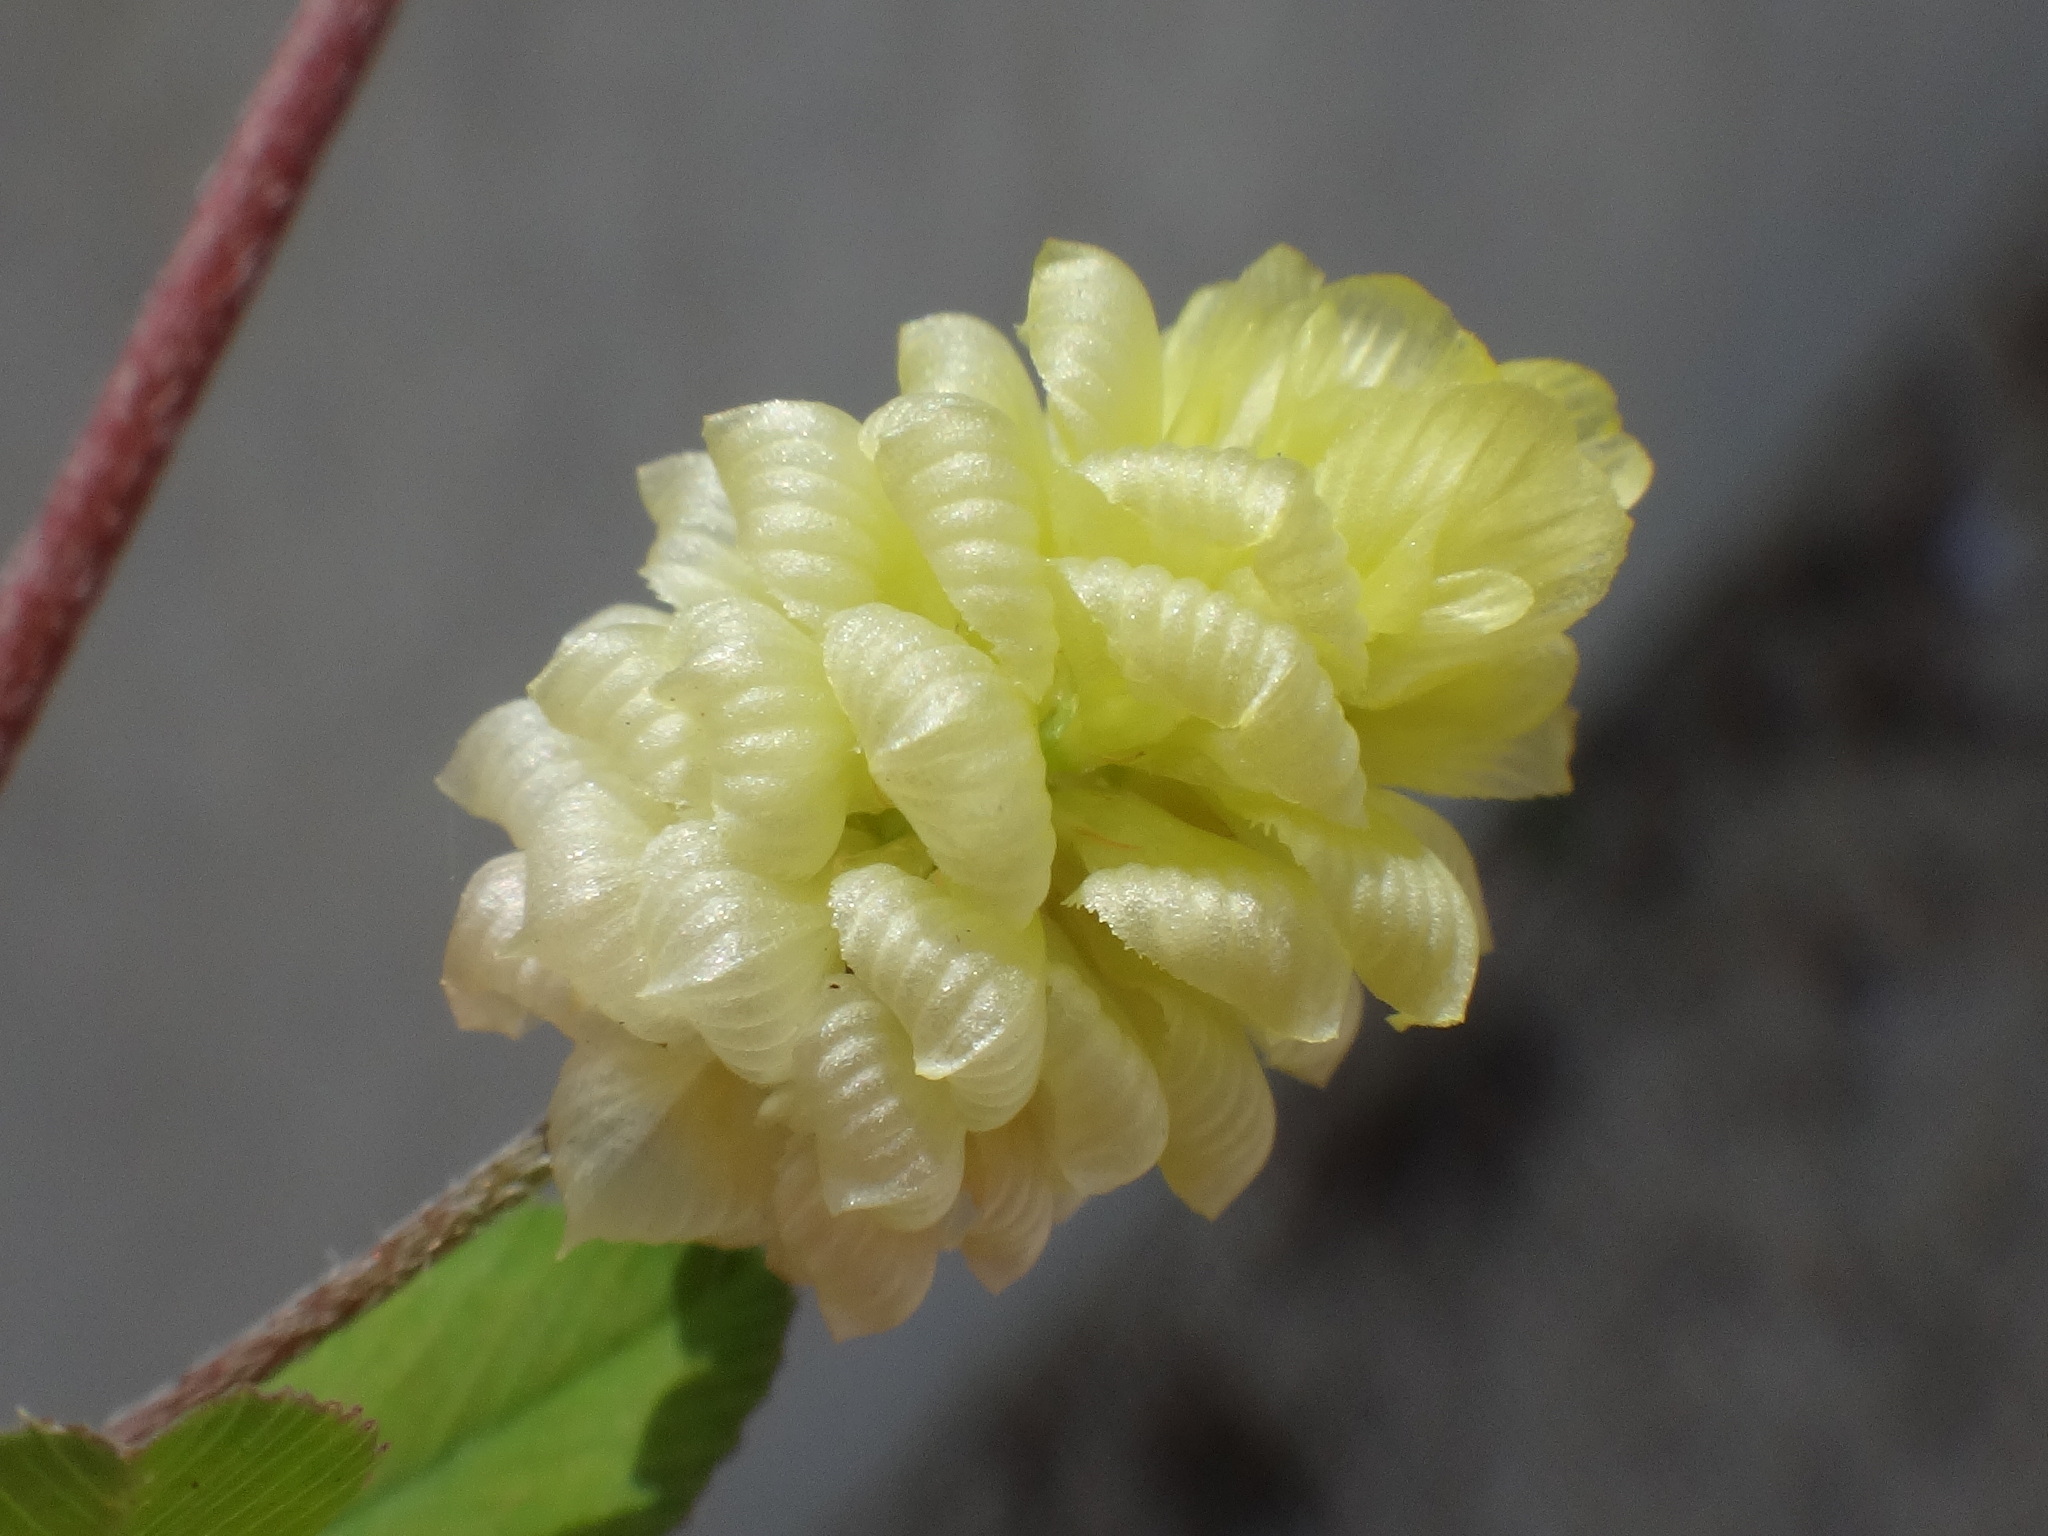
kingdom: Plantae
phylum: Tracheophyta
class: Magnoliopsida
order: Fabales
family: Fabaceae
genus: Trifolium
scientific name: Trifolium campestre
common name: Field clover
